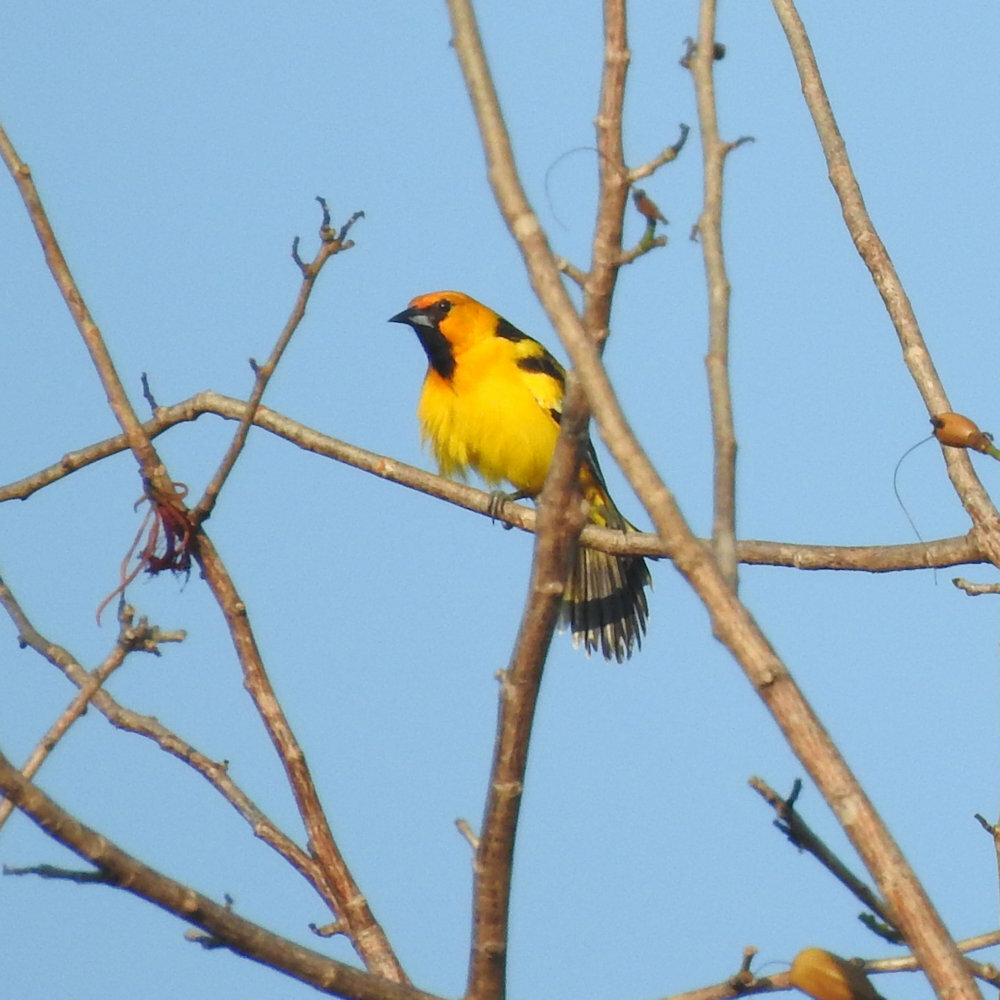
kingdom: Animalia
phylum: Chordata
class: Aves
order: Passeriformes
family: Icteridae
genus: Icterus
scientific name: Icterus pustulatus
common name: Streak-backed oriole
